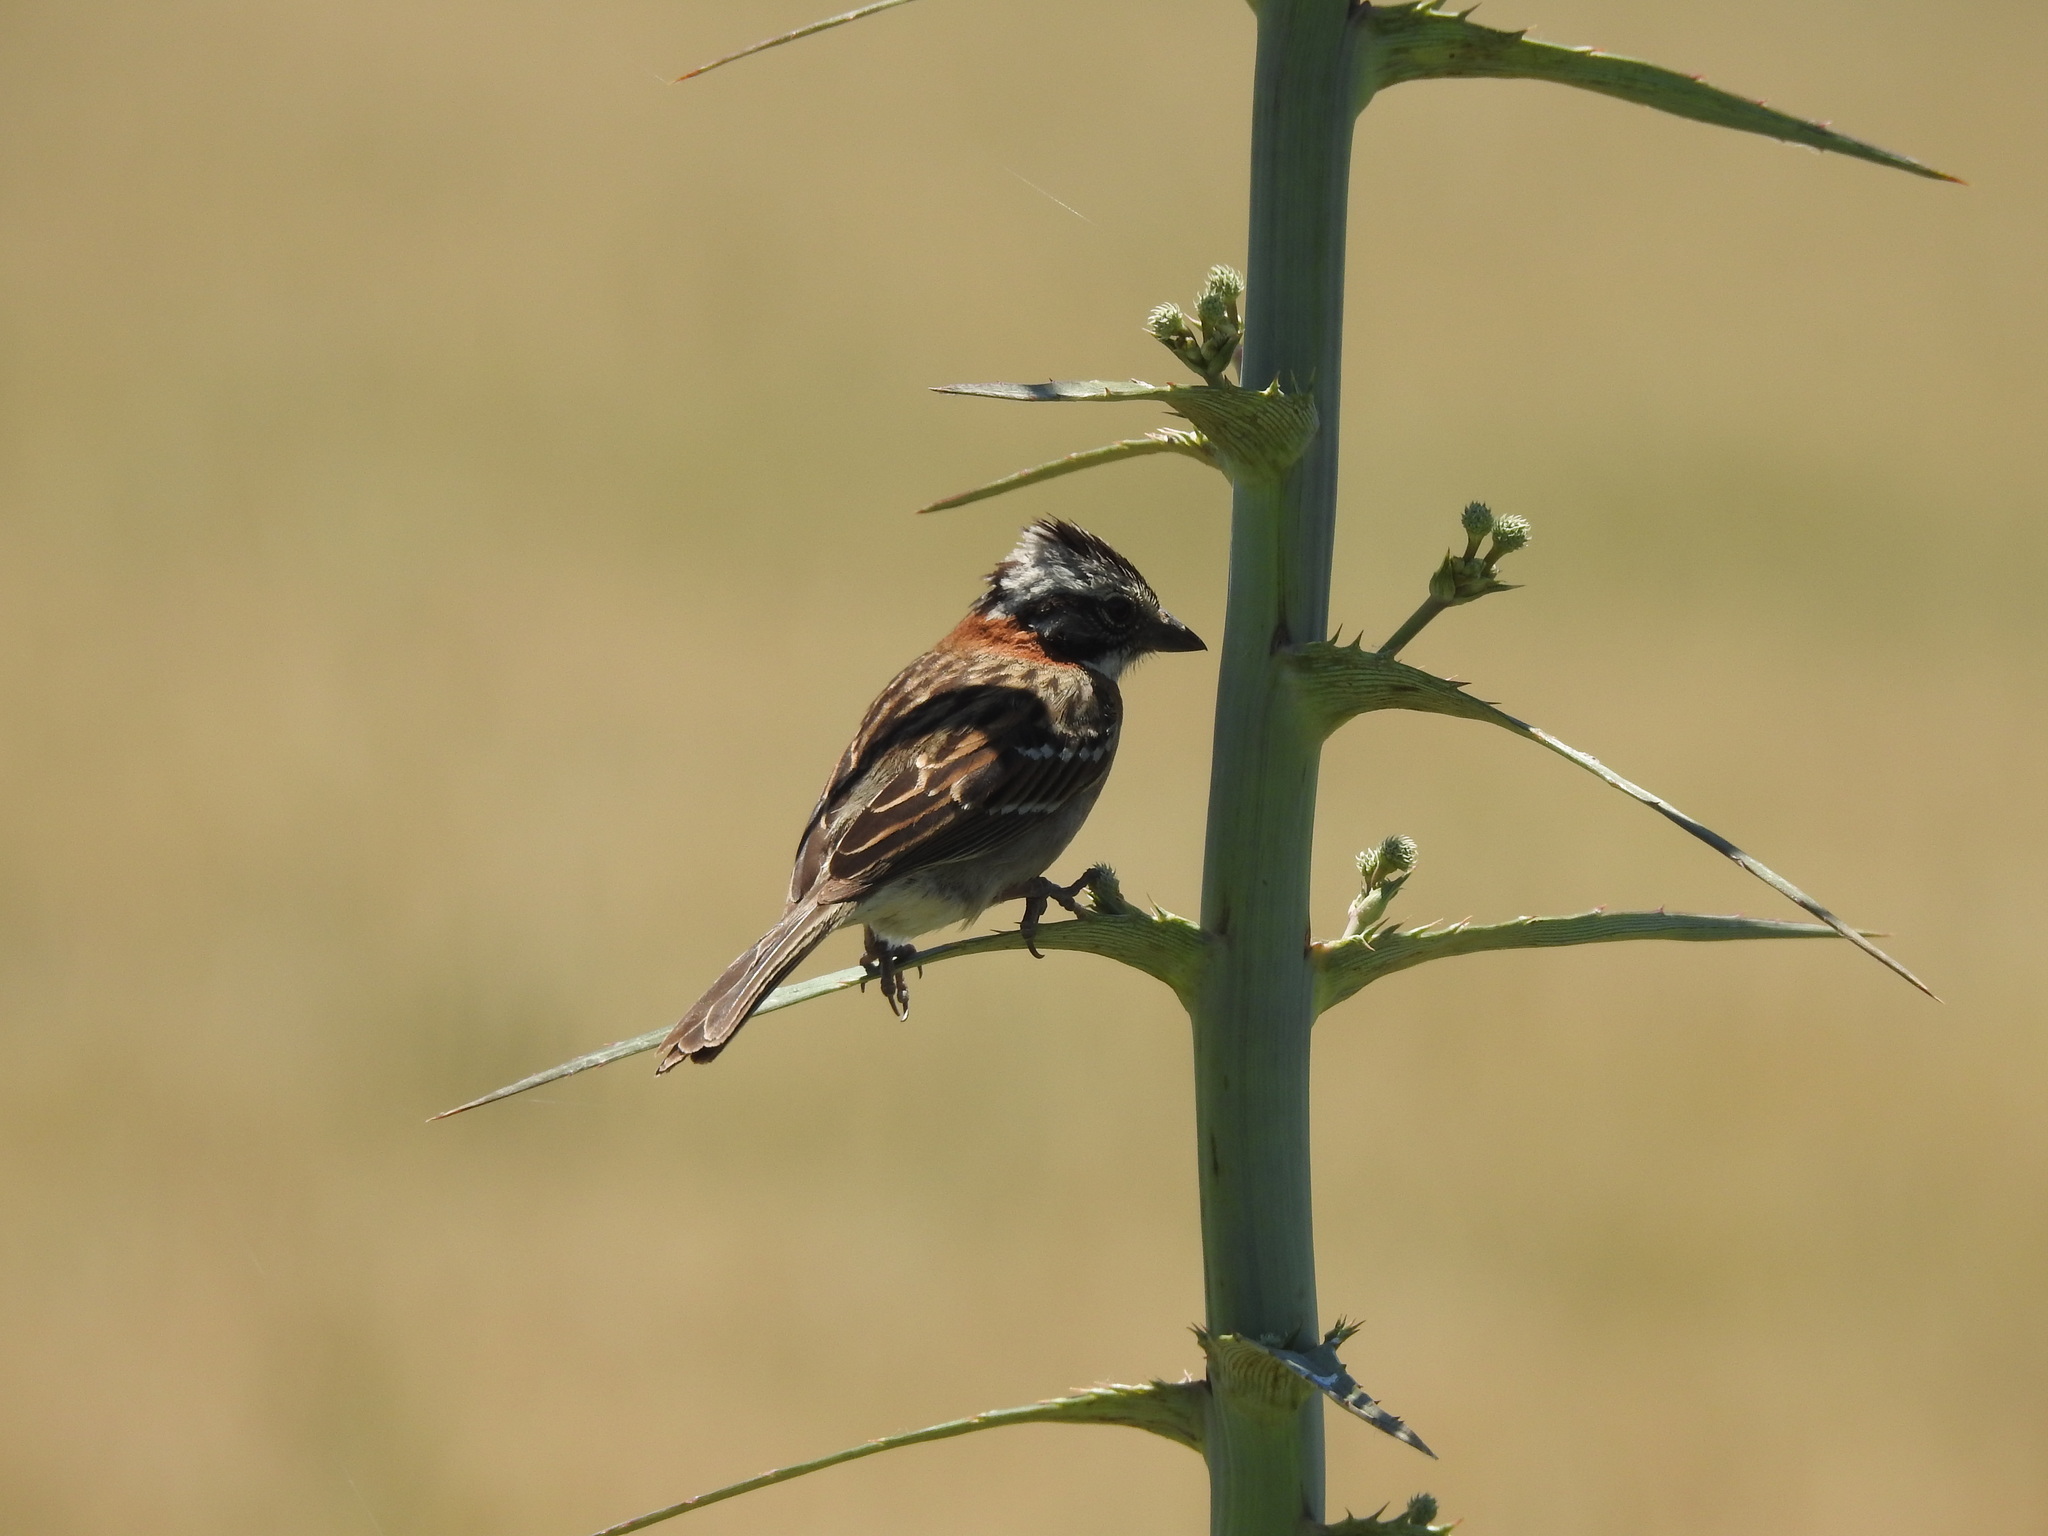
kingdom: Animalia
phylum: Chordata
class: Aves
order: Passeriformes
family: Passerellidae
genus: Zonotrichia
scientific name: Zonotrichia capensis
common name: Rufous-collared sparrow
